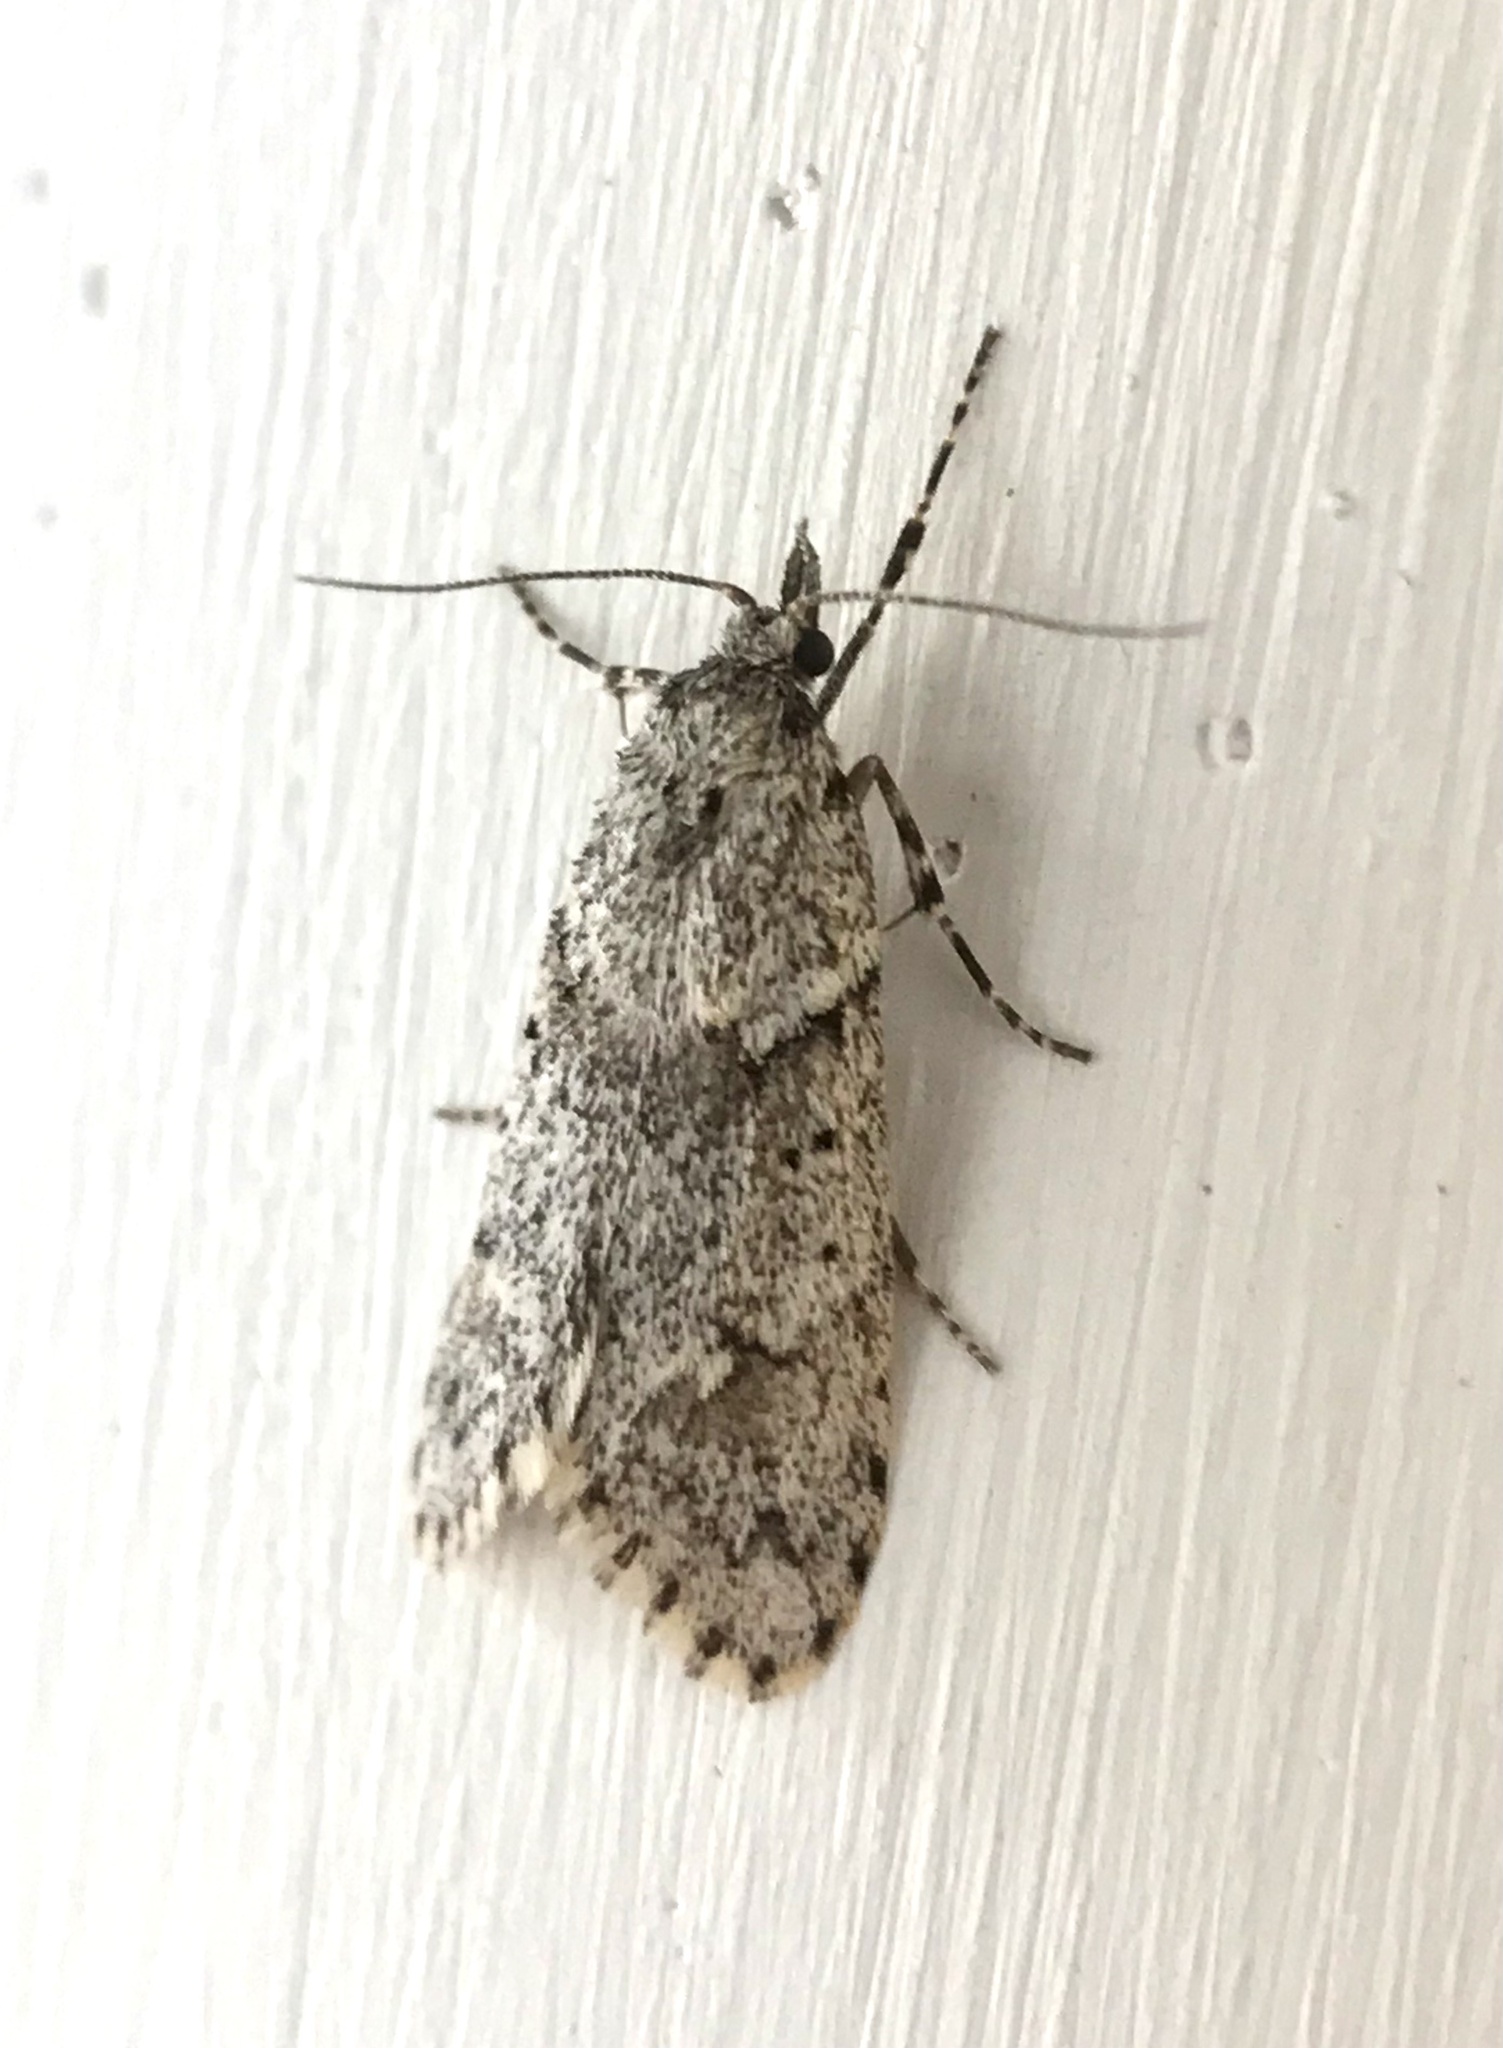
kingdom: Animalia
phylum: Arthropoda
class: Insecta
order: Lepidoptera
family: Lypusidae
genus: Diurnea
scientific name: Diurnea fagella
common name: March tubic
